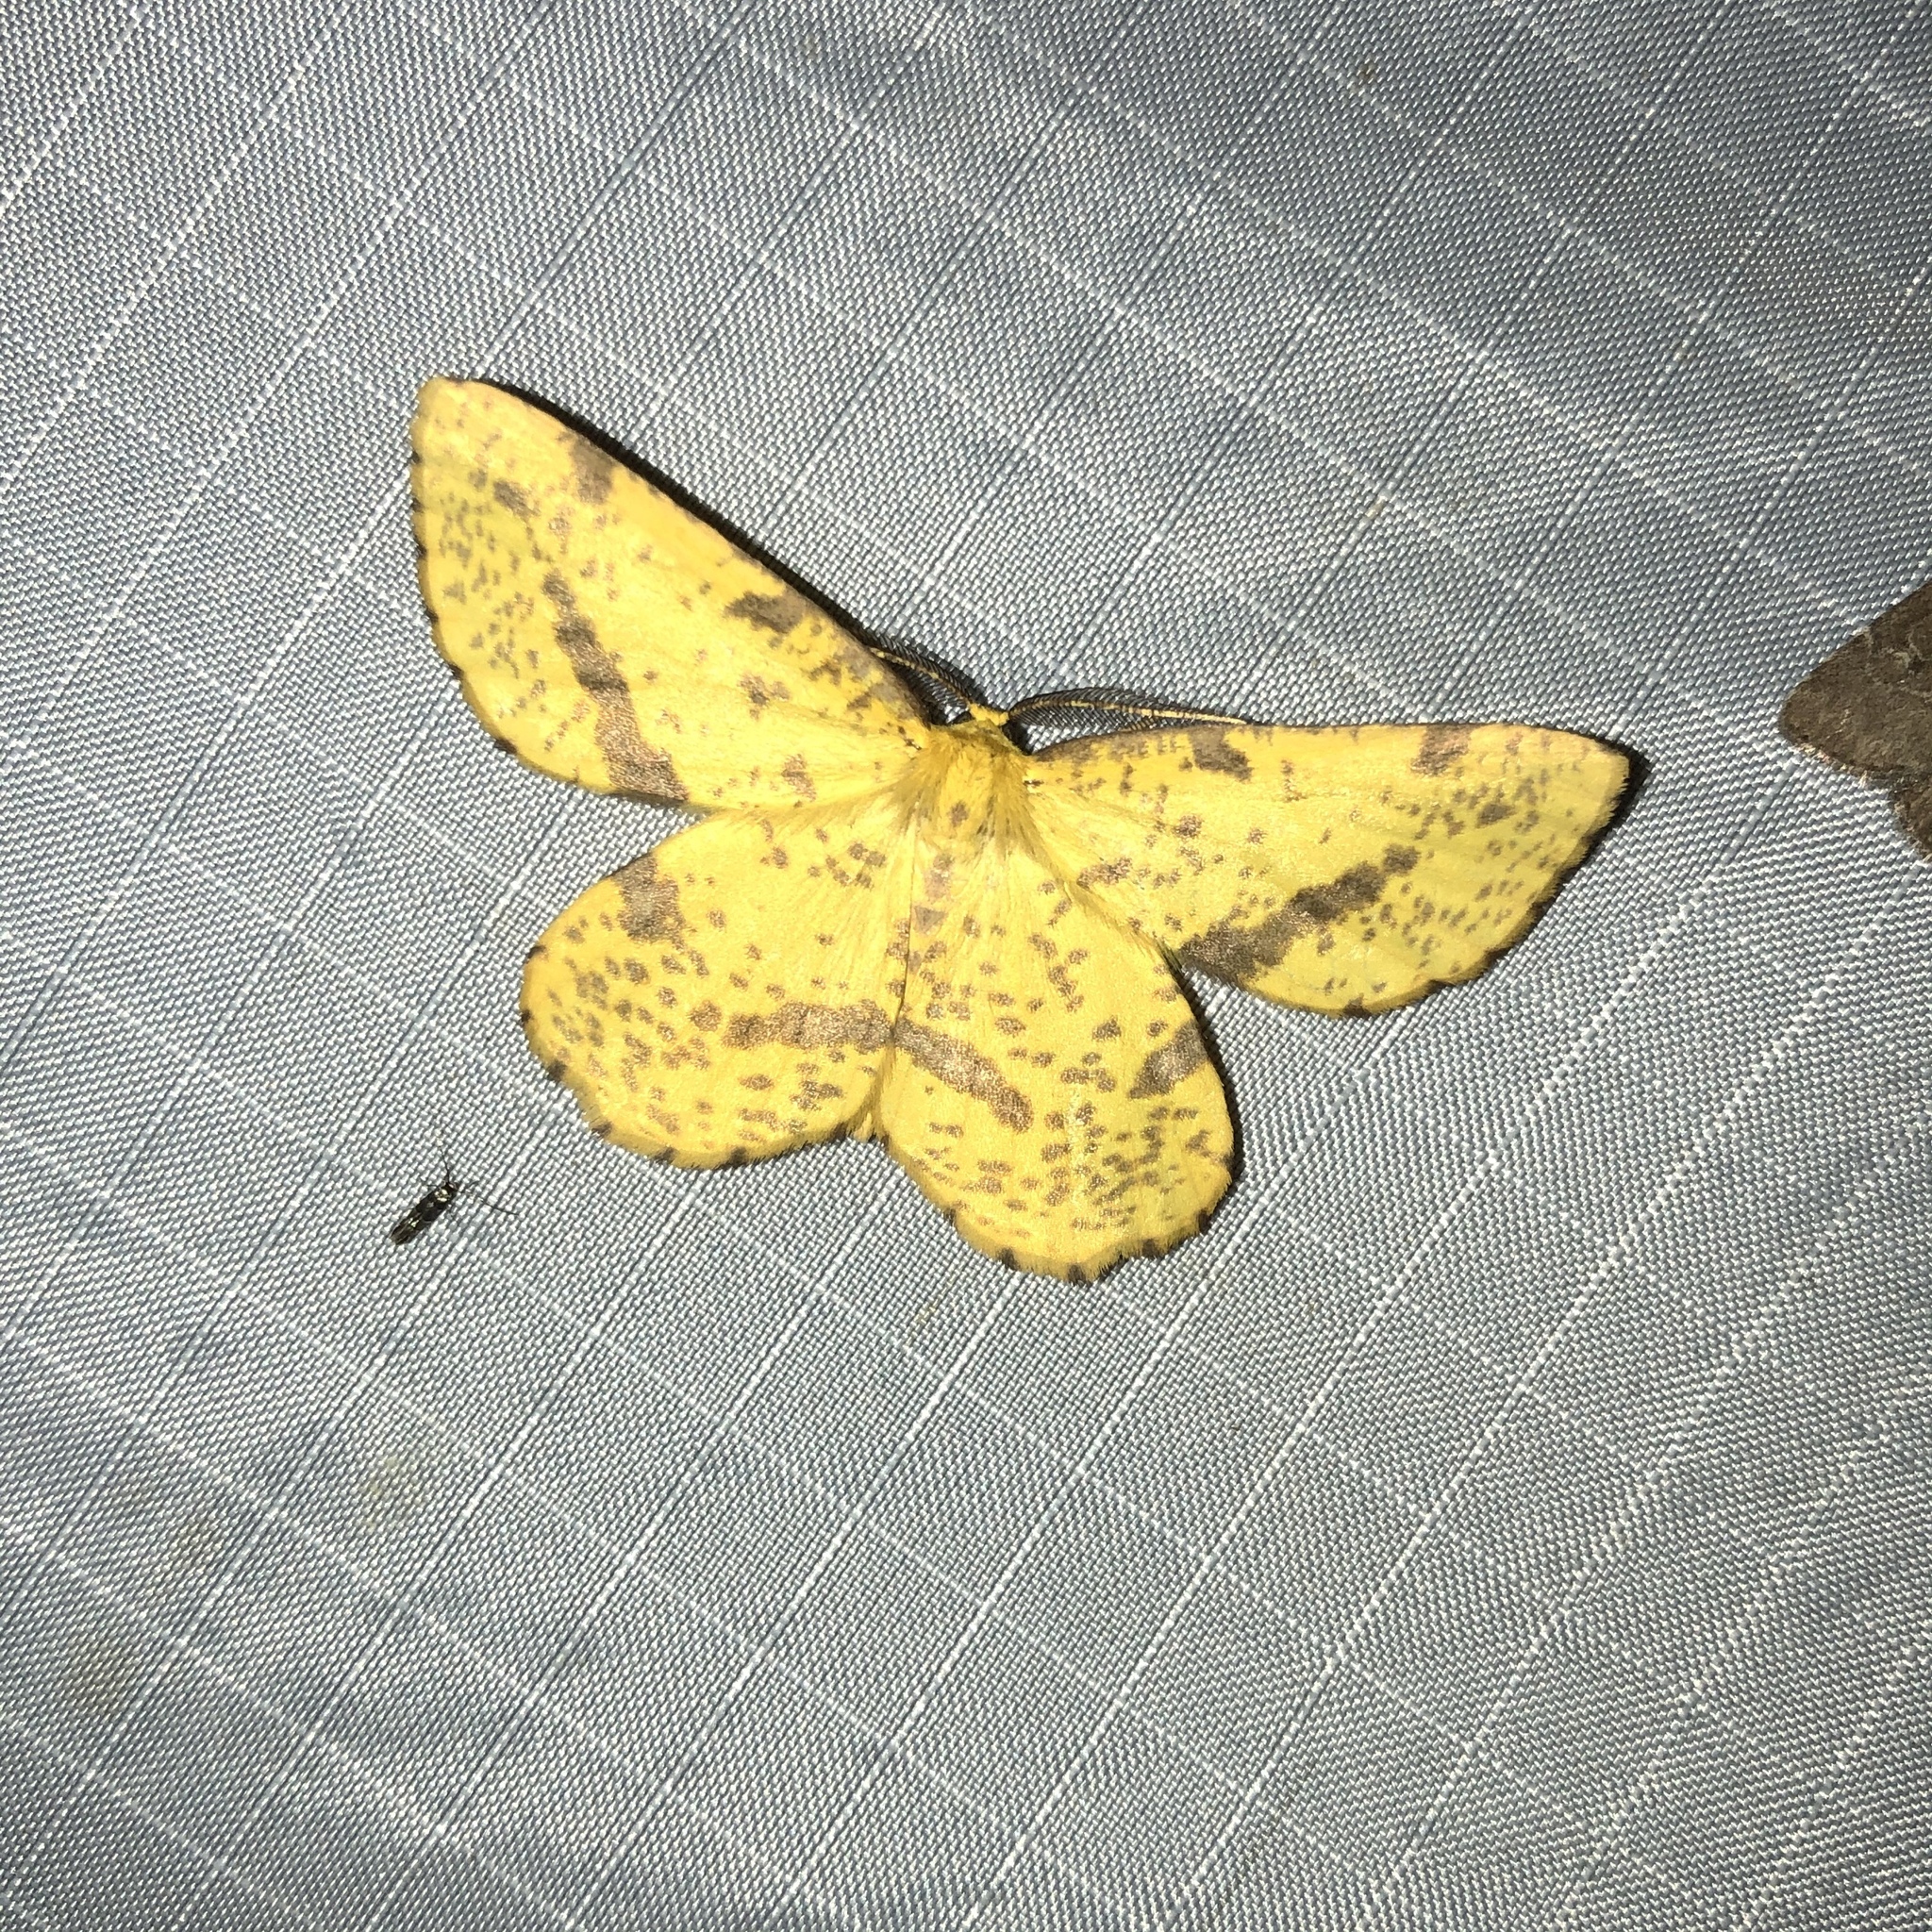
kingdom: Animalia
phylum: Arthropoda
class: Insecta
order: Lepidoptera
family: Geometridae
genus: Xanthotype
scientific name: Xanthotype
